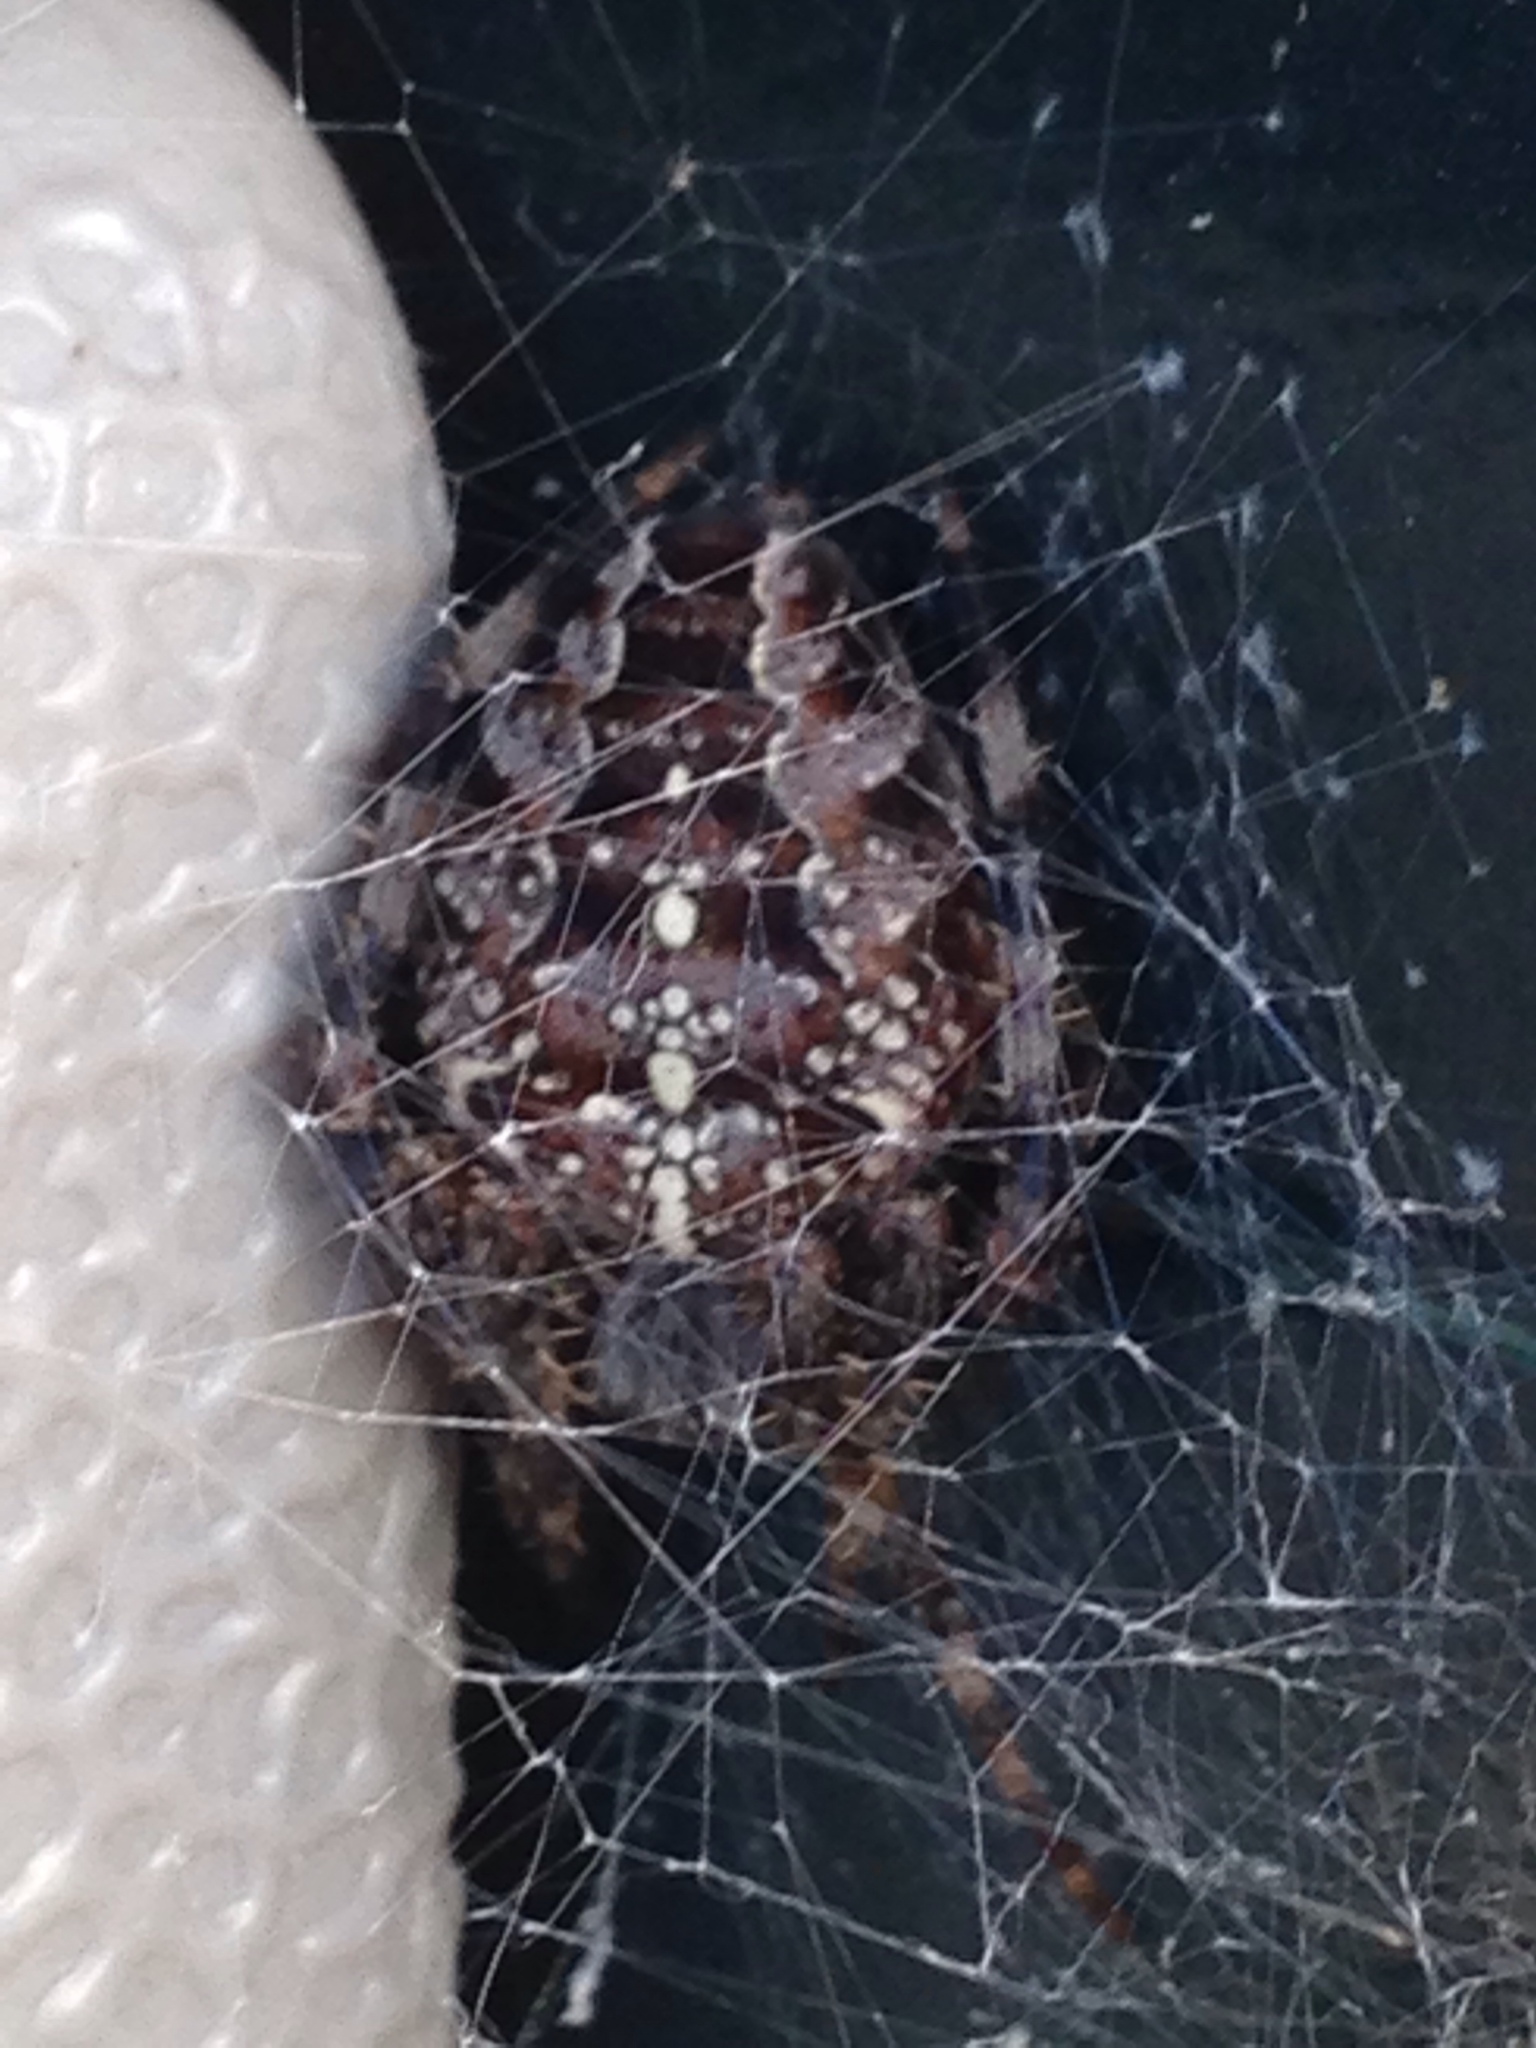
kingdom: Animalia
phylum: Arthropoda
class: Arachnida
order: Araneae
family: Araneidae
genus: Araneus
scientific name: Araneus diadematus
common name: Cross orbweaver
